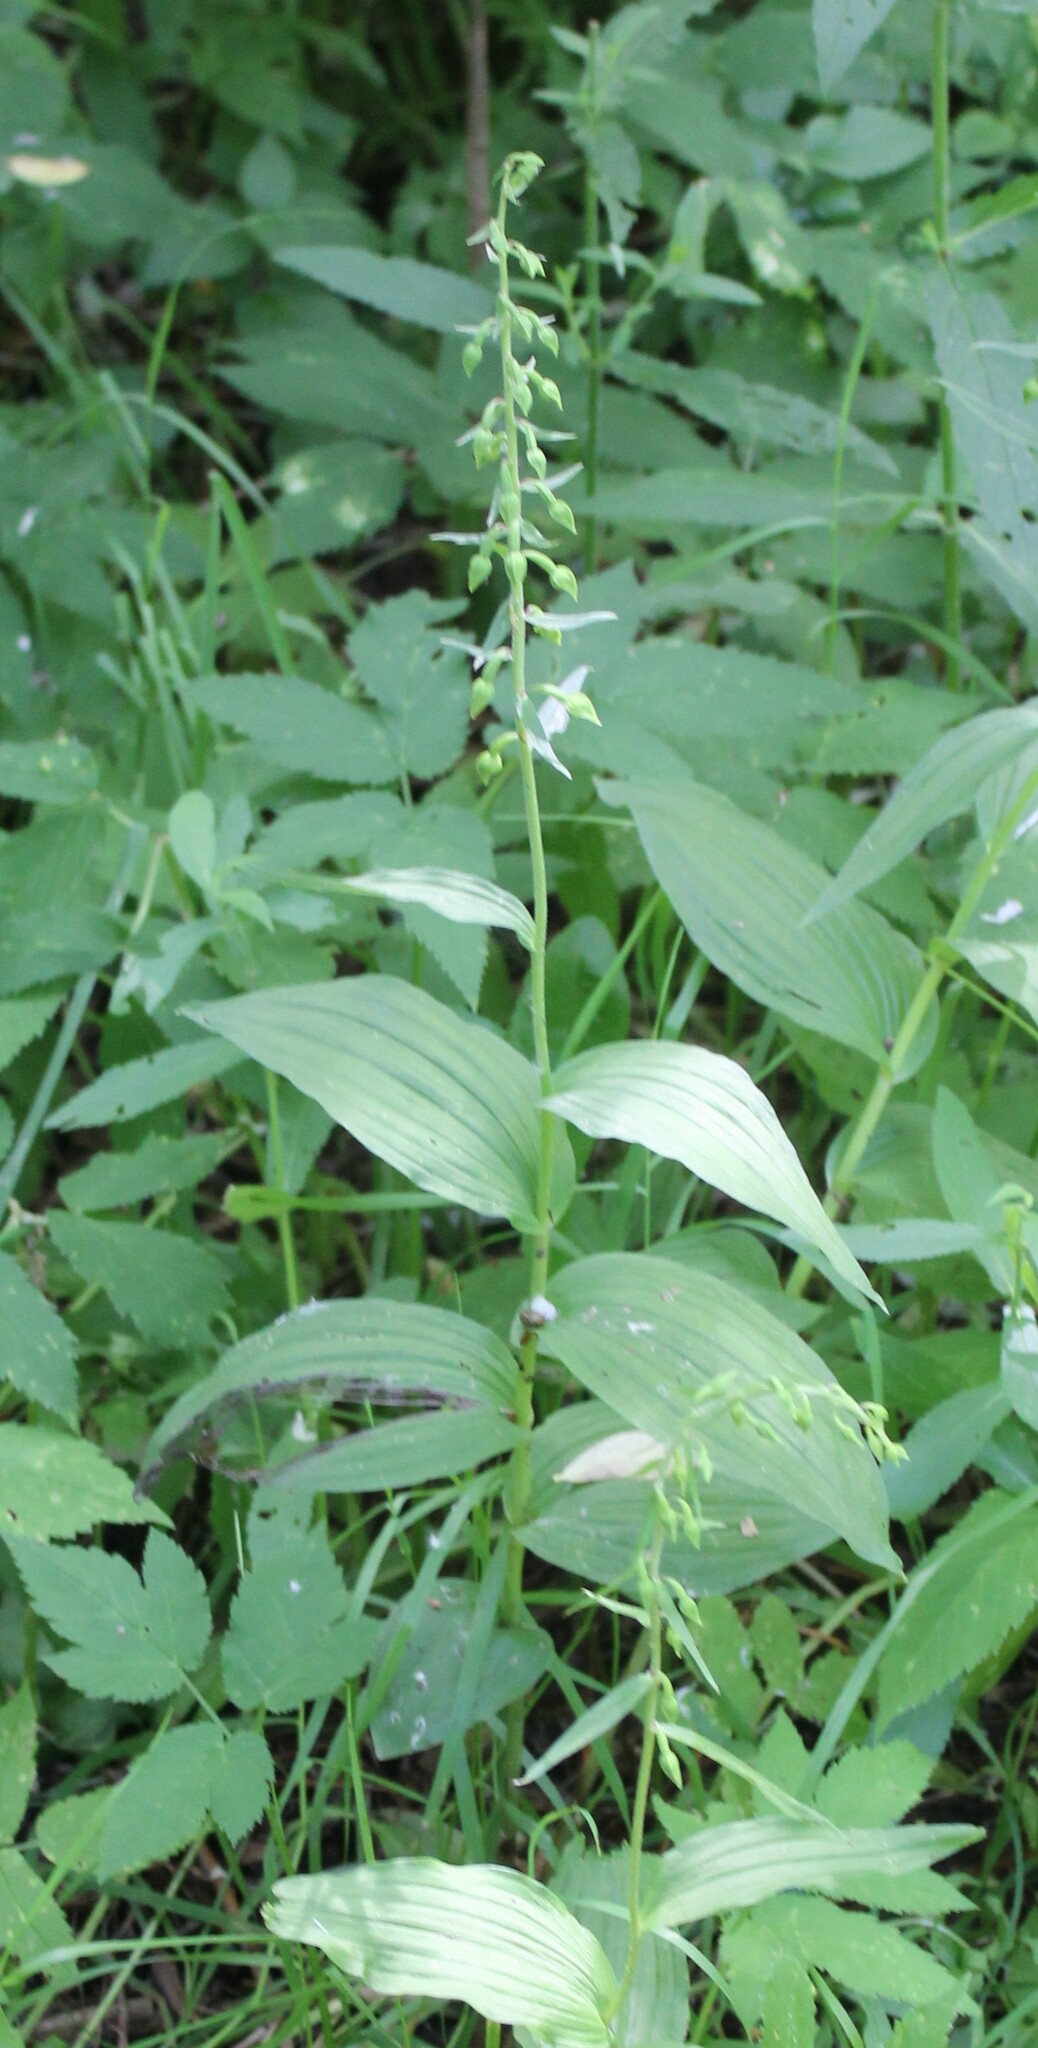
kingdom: Plantae
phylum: Tracheophyta
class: Liliopsida
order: Asparagales
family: Orchidaceae
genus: Epipactis
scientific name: Epipactis helleborine
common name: Broad-leaved helleborine
